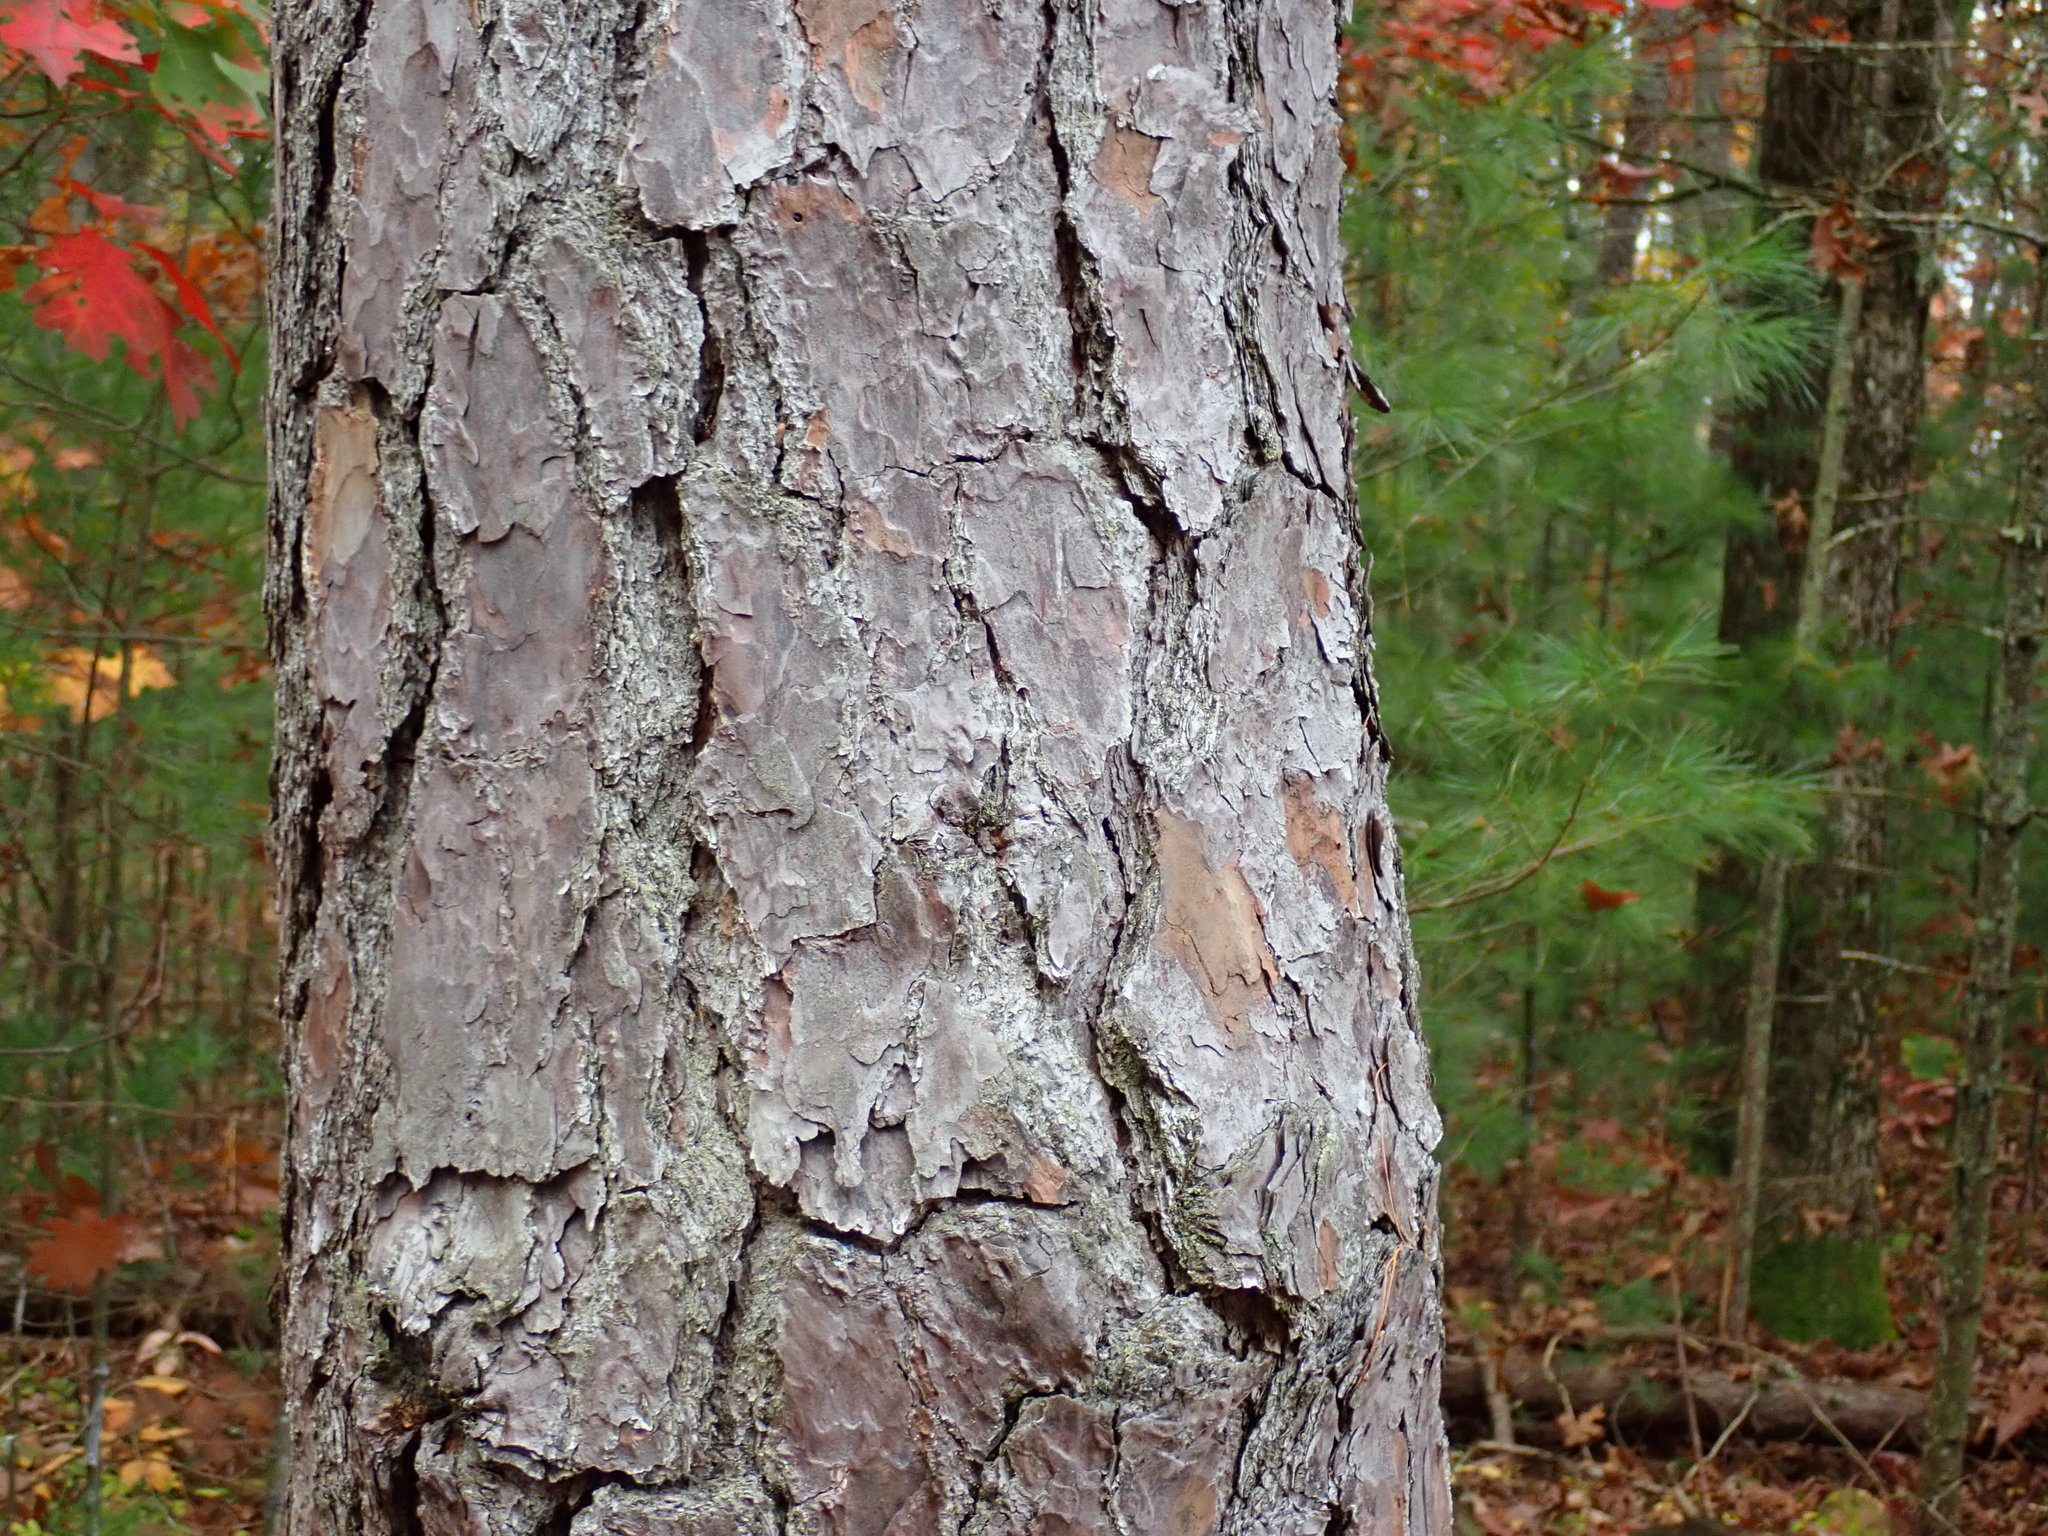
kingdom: Plantae
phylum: Tracheophyta
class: Pinopsida
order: Pinales
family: Pinaceae
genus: Pinus
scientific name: Pinus rigida
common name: Pitch pine
